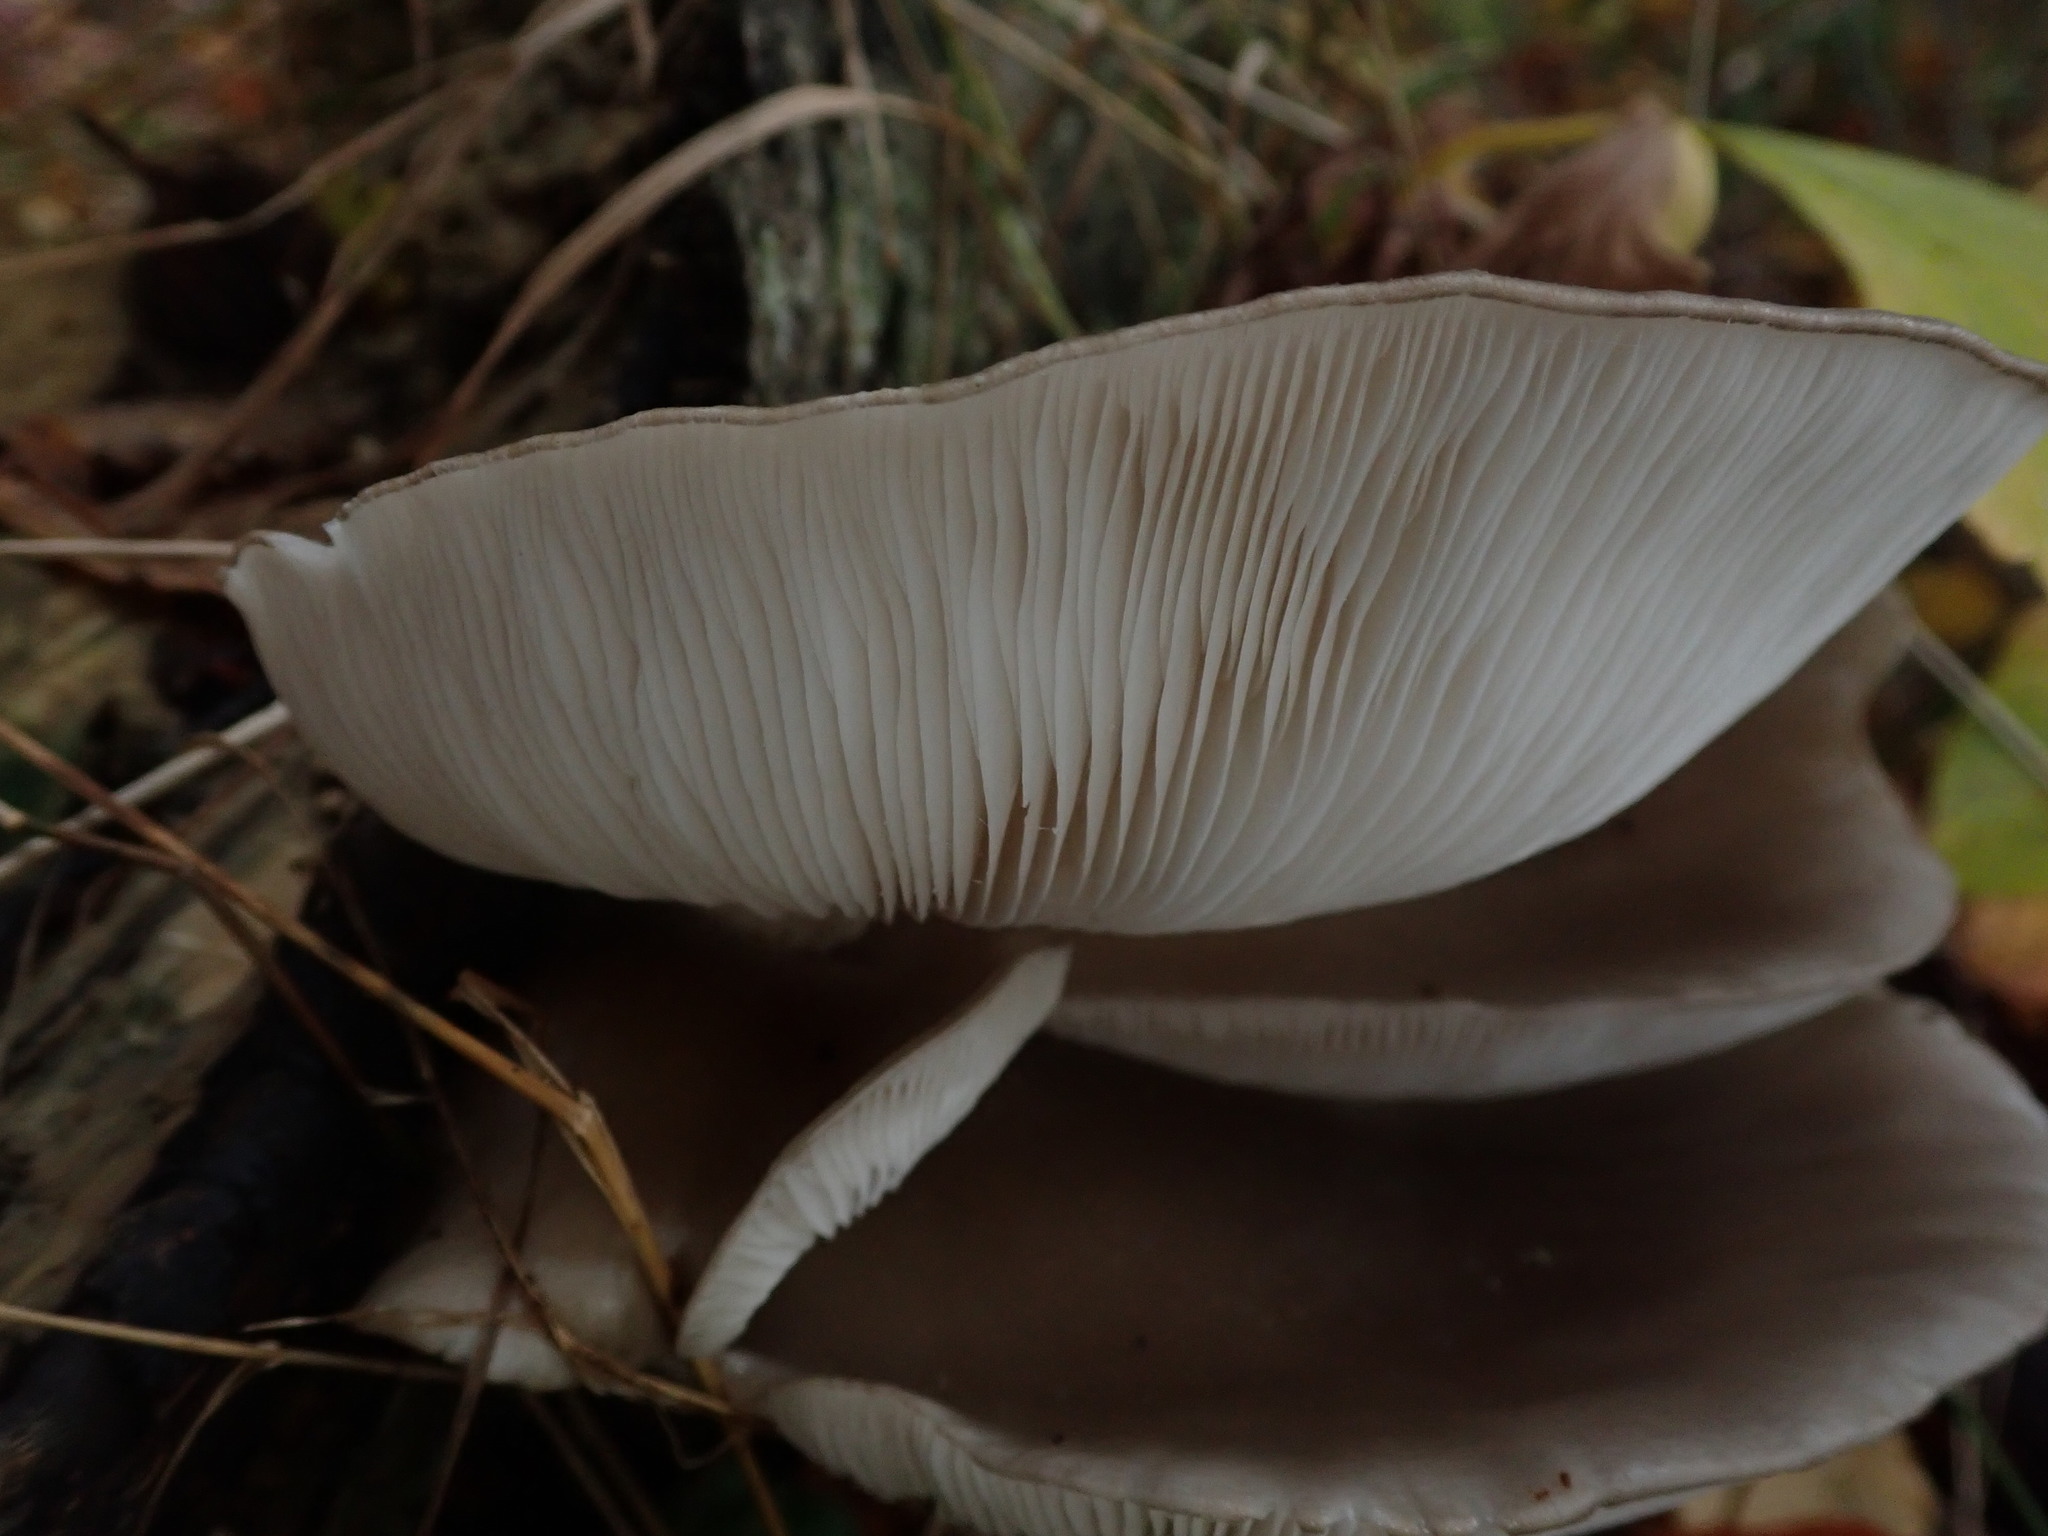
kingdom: Fungi
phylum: Basidiomycota
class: Agaricomycetes
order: Agaricales
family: Pleurotaceae
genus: Pleurotus
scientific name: Pleurotus ostreatus
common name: Oyster mushroom
